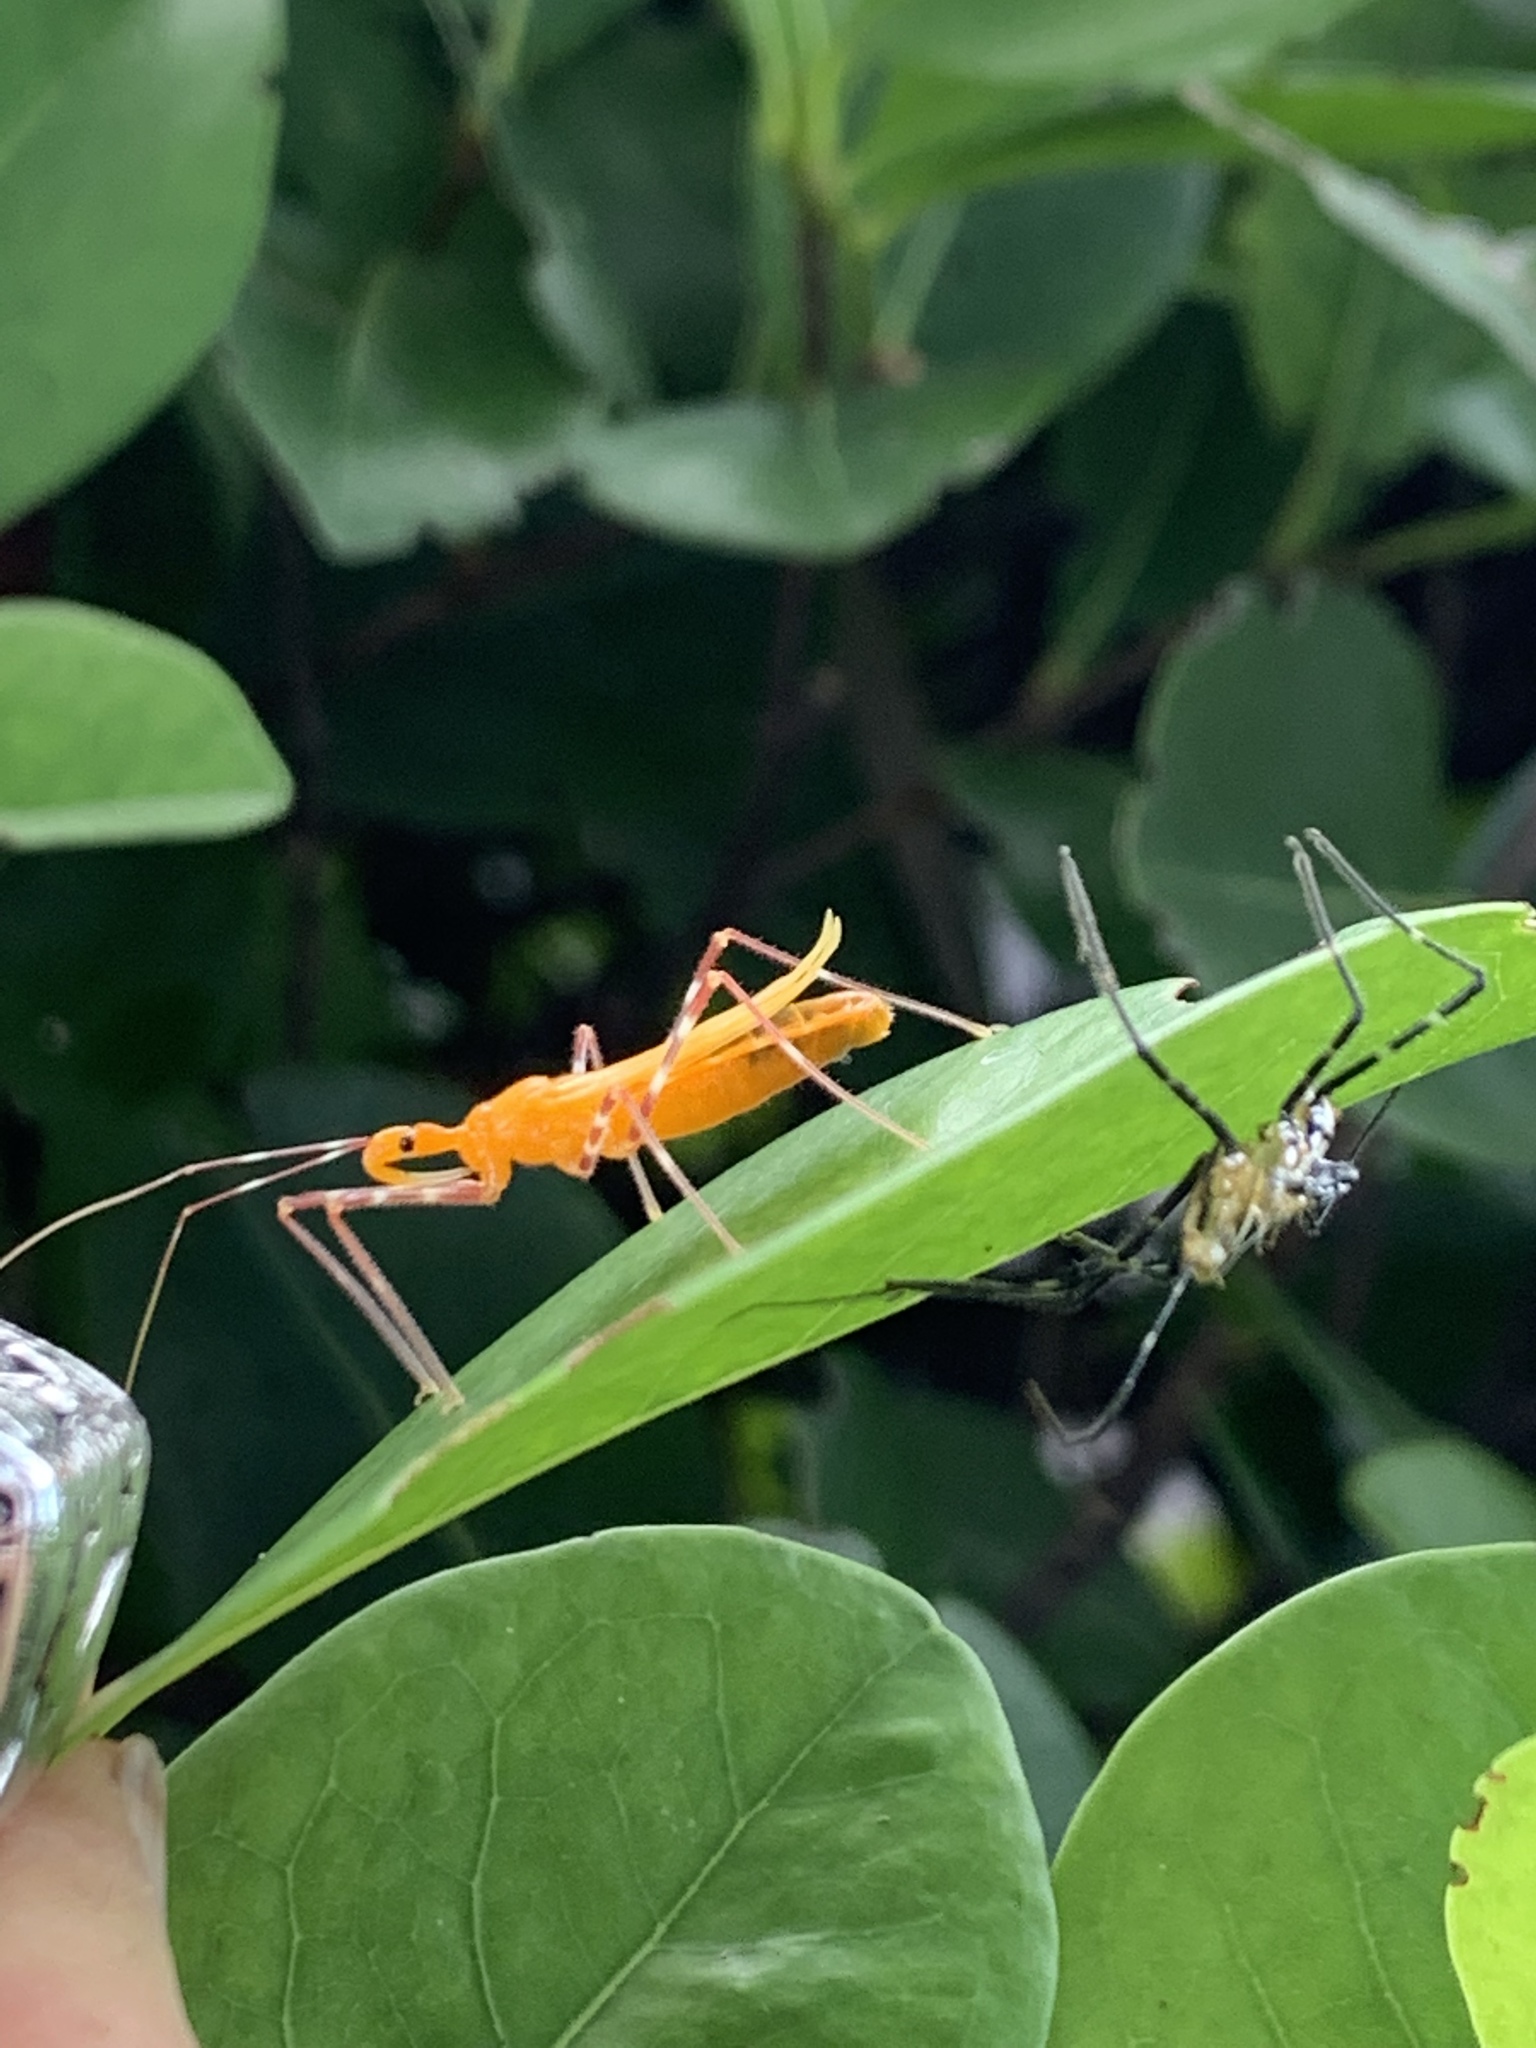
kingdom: Animalia
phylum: Arthropoda
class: Insecta
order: Hemiptera
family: Reduviidae
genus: Zelus
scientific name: Zelus longipes
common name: Milkweed assassin bug
